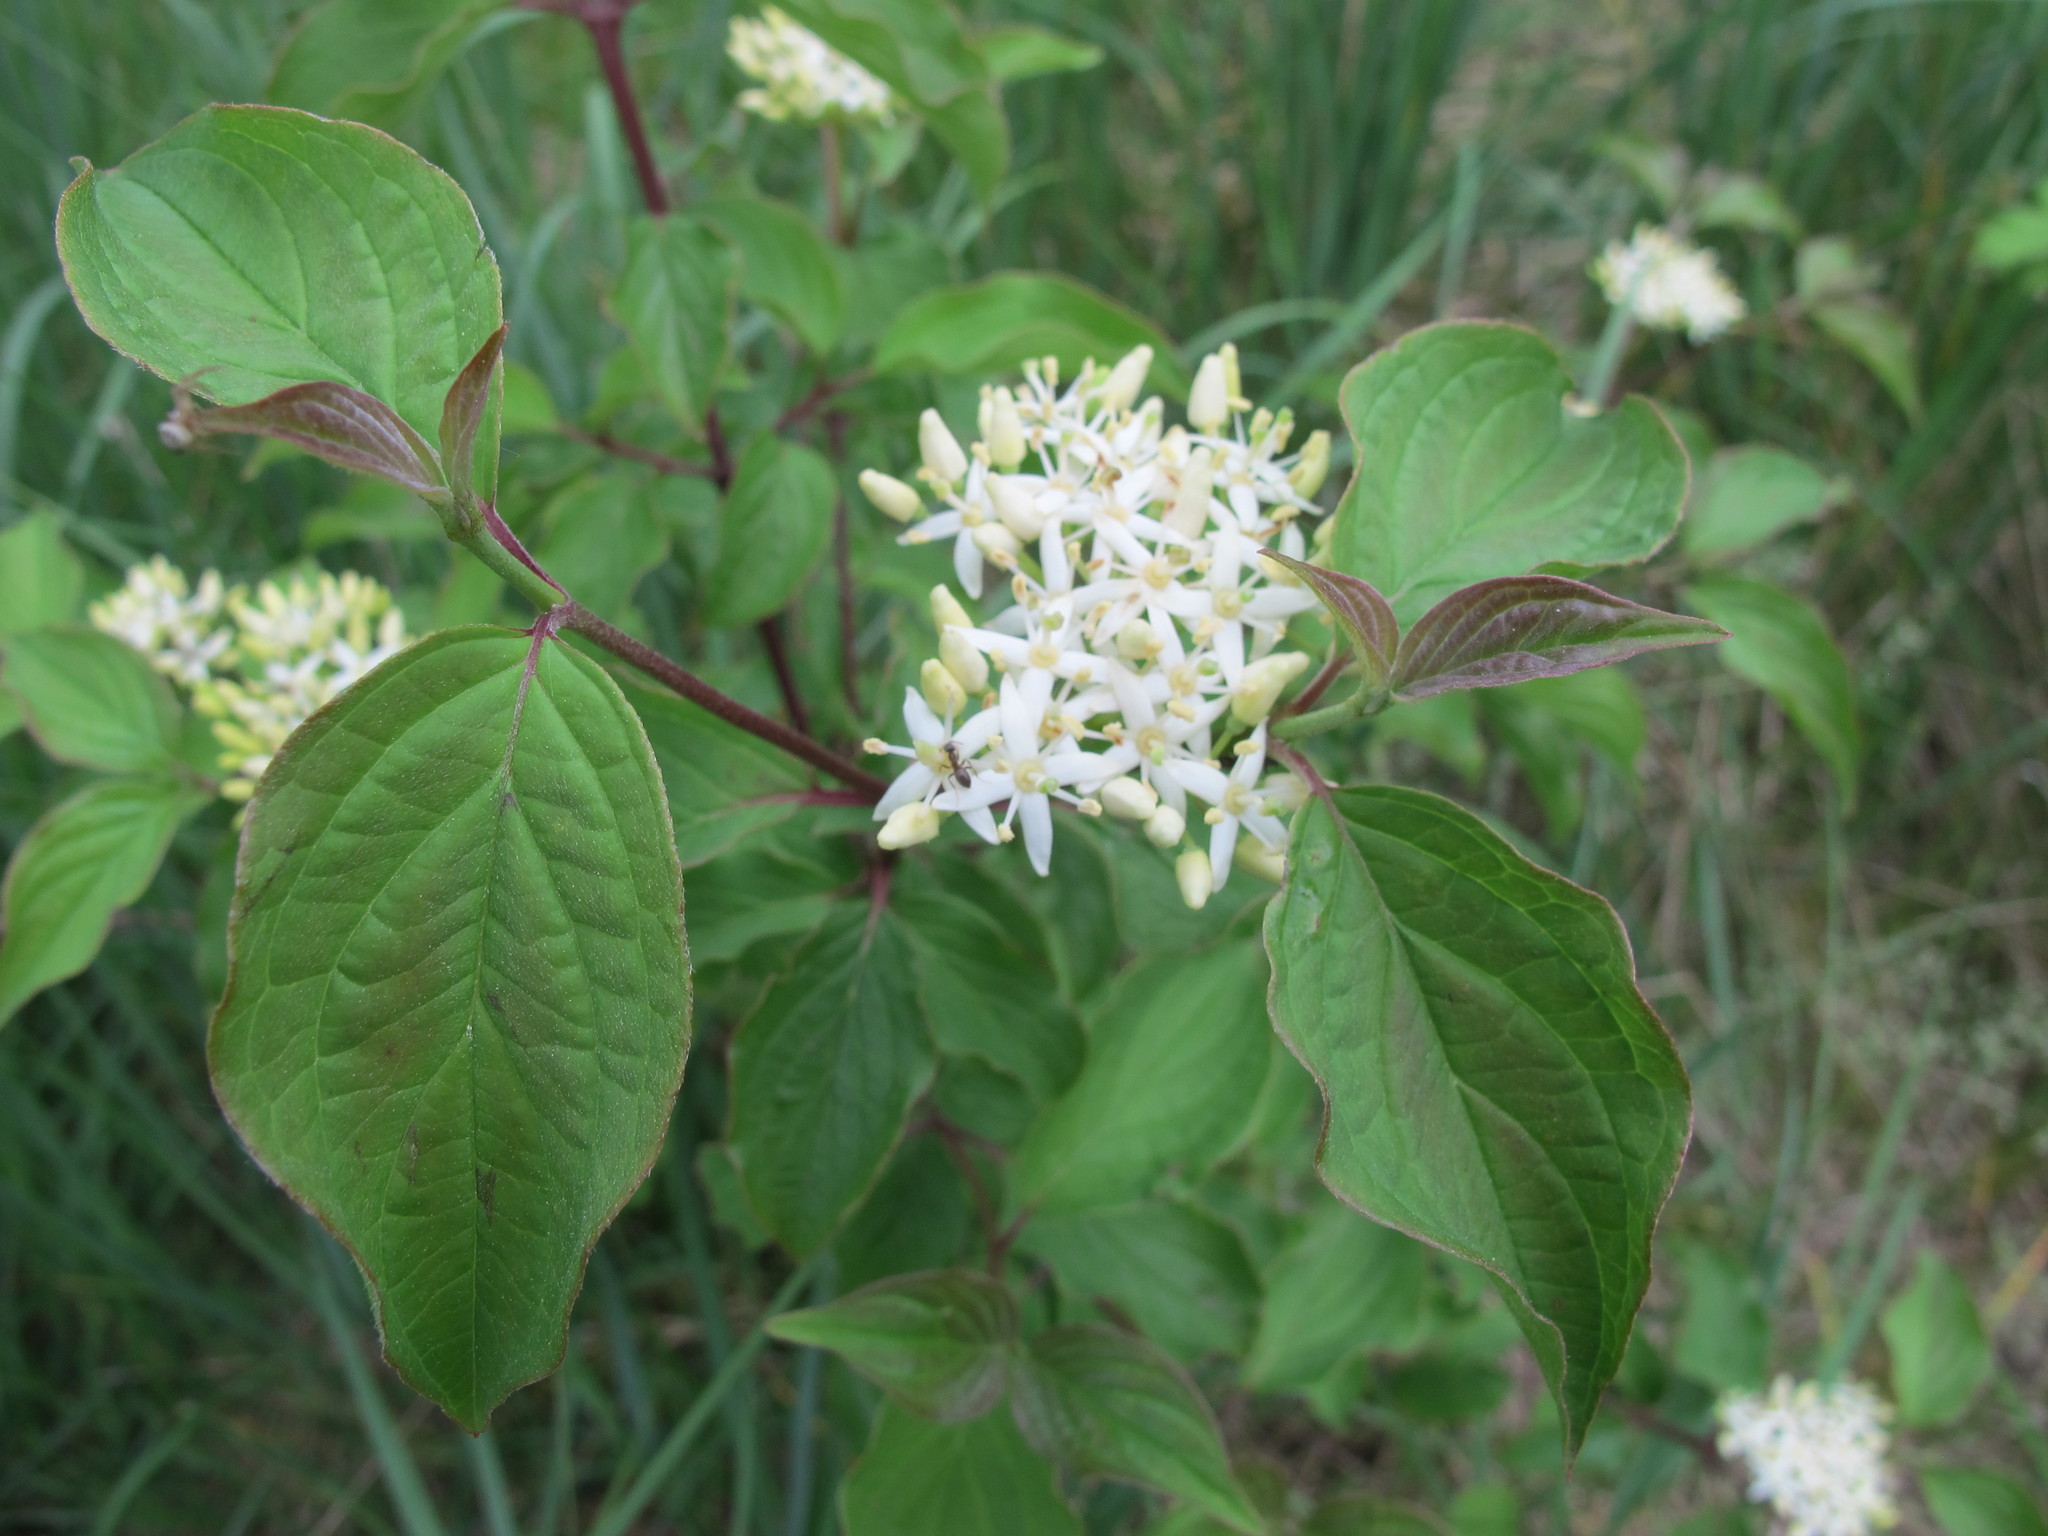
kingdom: Plantae
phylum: Tracheophyta
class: Magnoliopsida
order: Cornales
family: Cornaceae
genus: Cornus
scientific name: Cornus sanguinea
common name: Dogwood
